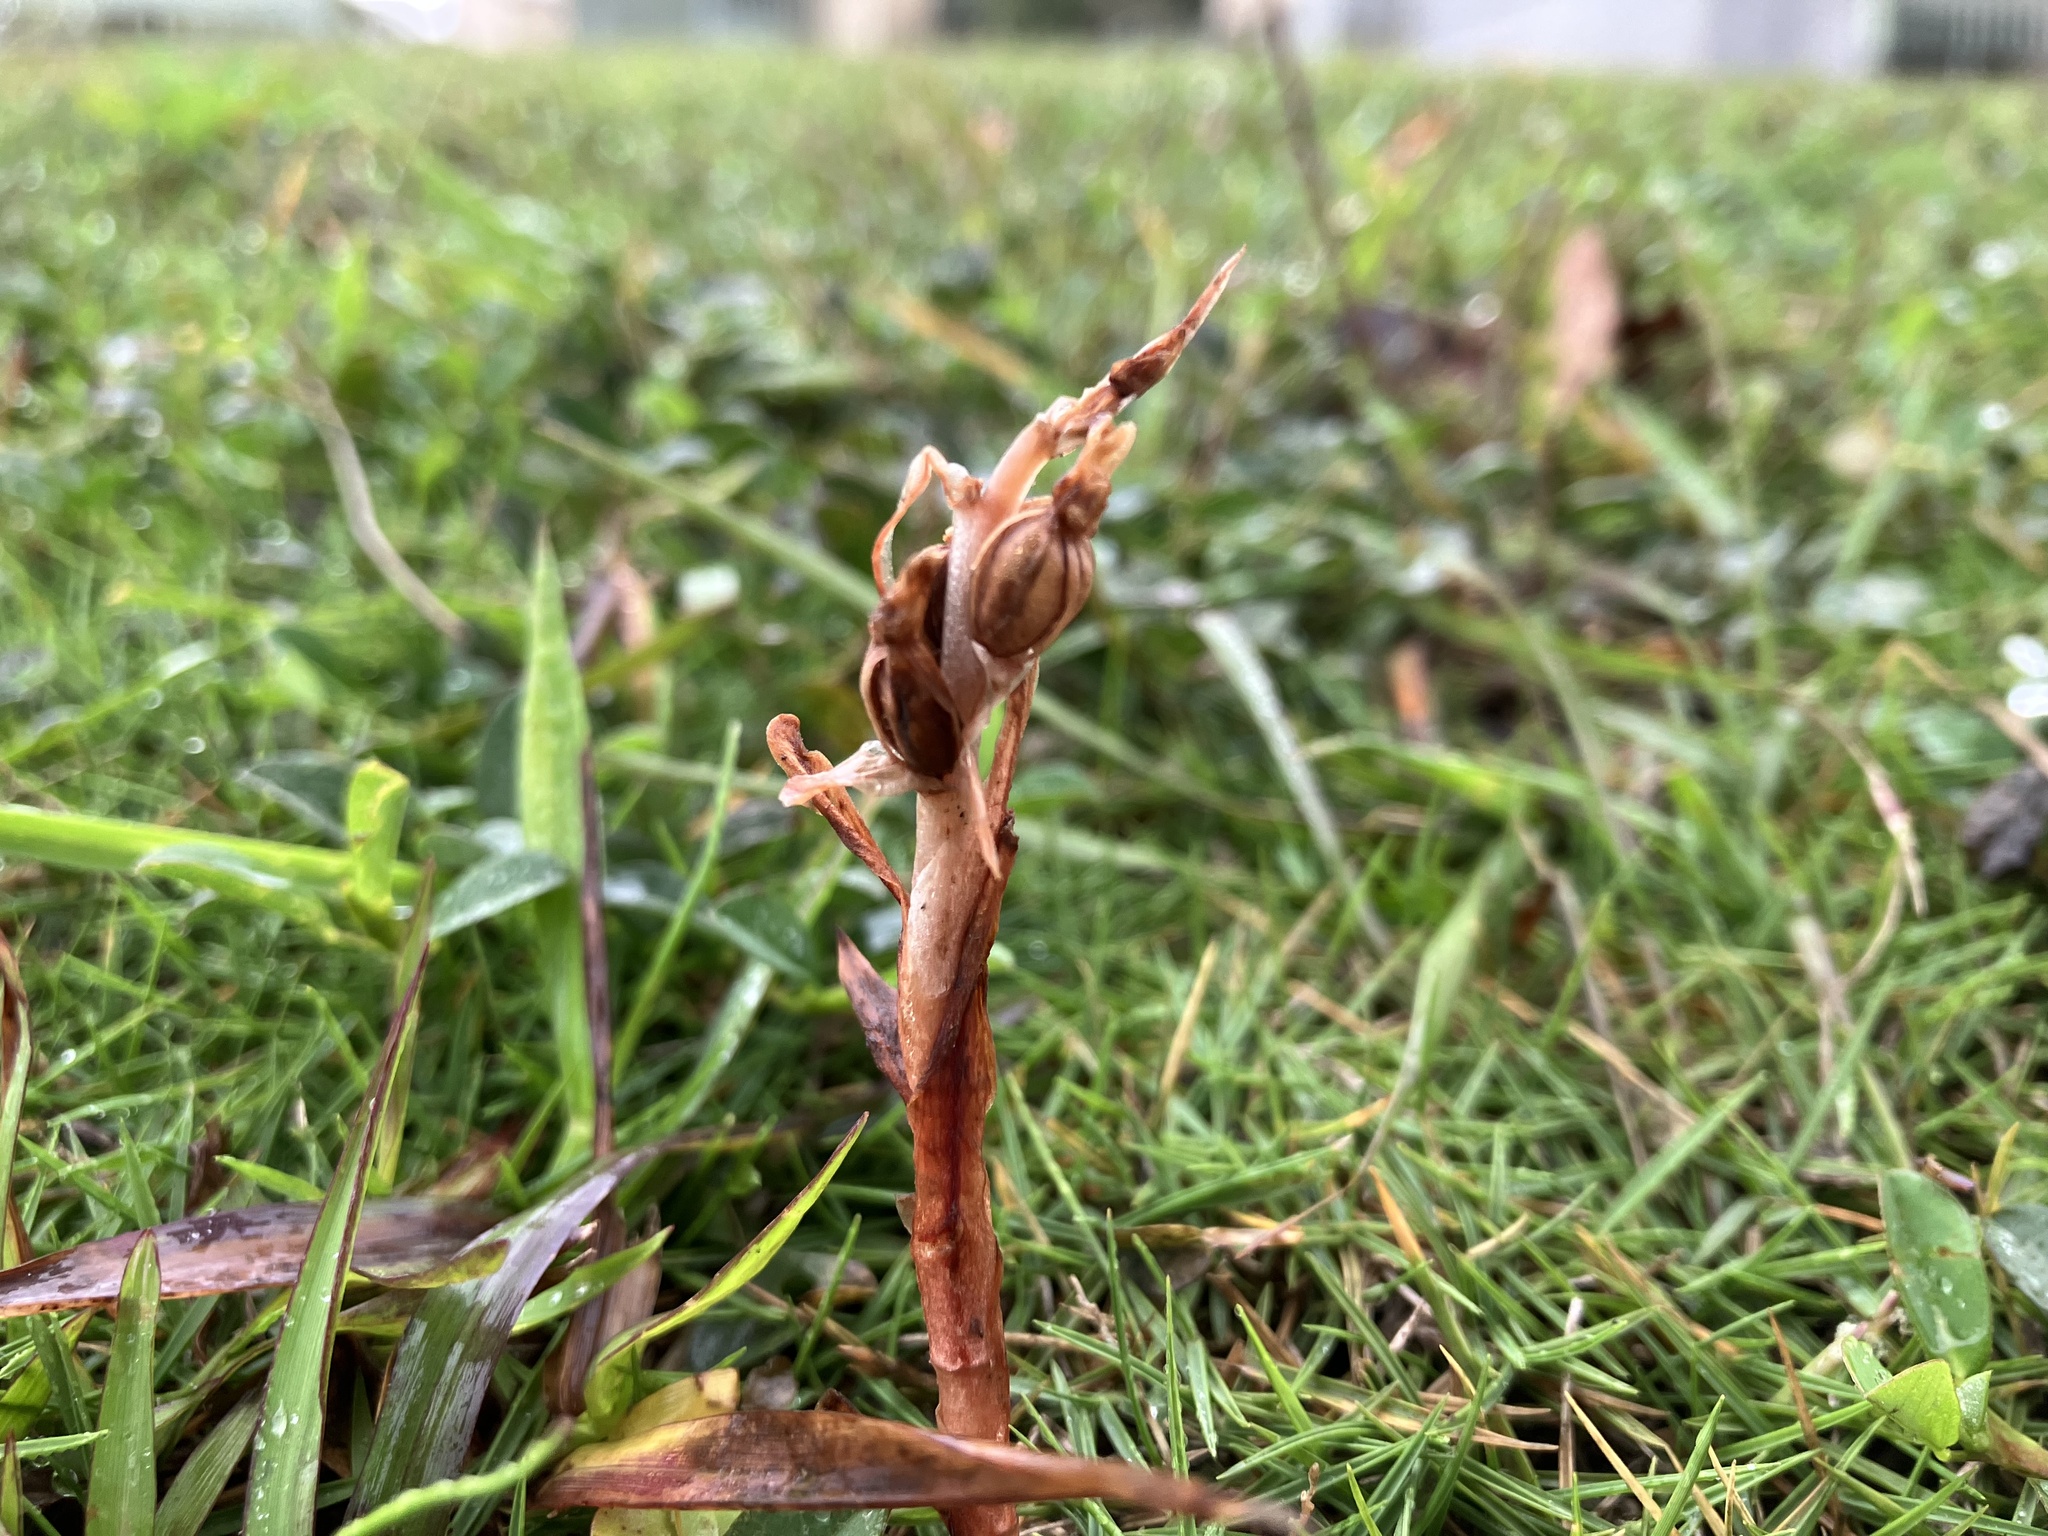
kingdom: Plantae
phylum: Tracheophyta
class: Liliopsida
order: Asparagales
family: Orchidaceae
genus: Zeuxine
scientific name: Zeuxine strateumatica
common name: Soldier's orchid
